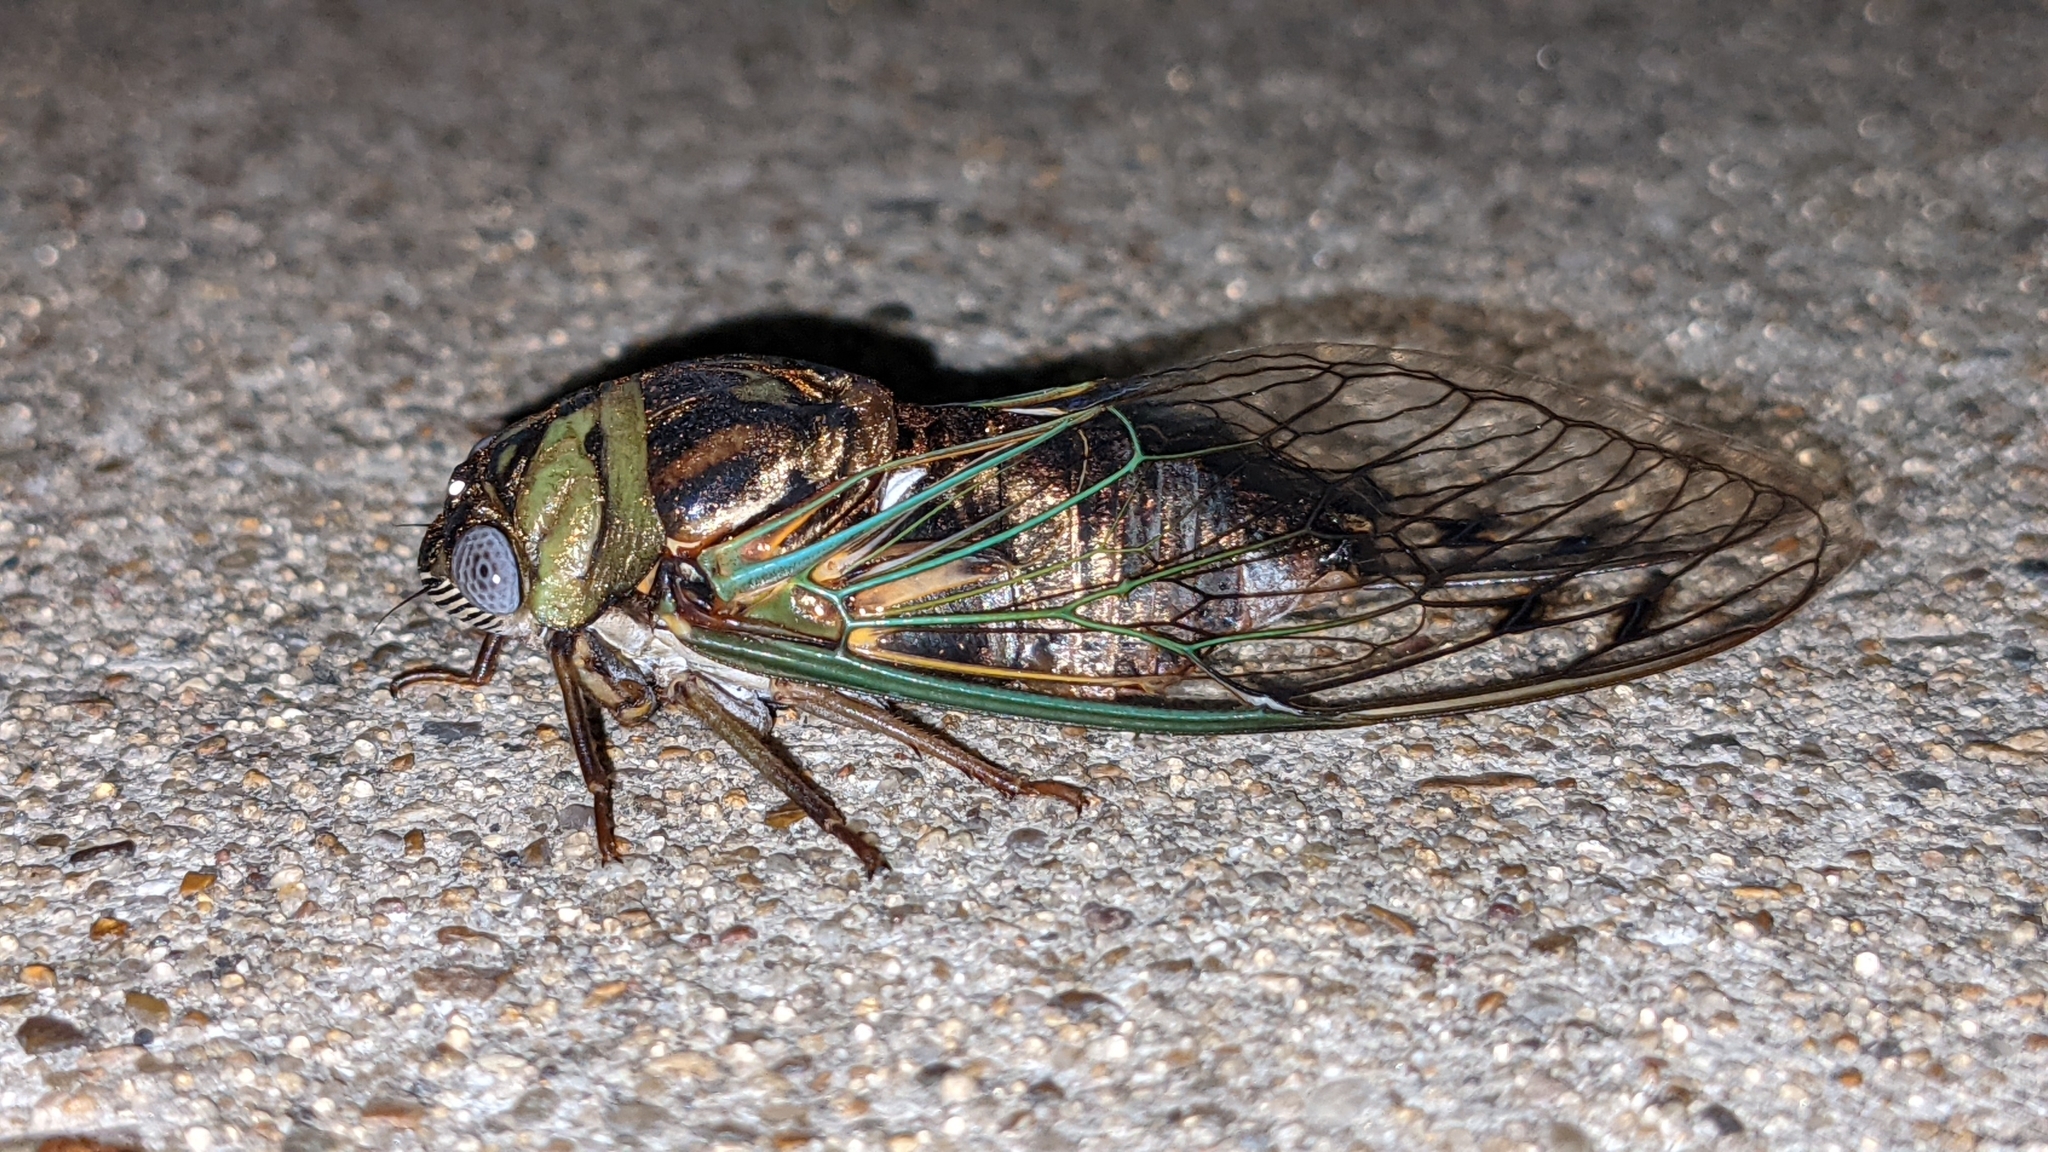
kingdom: Animalia
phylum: Arthropoda
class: Insecta
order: Hemiptera
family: Cicadidae
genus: Megatibicen
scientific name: Megatibicen resh
